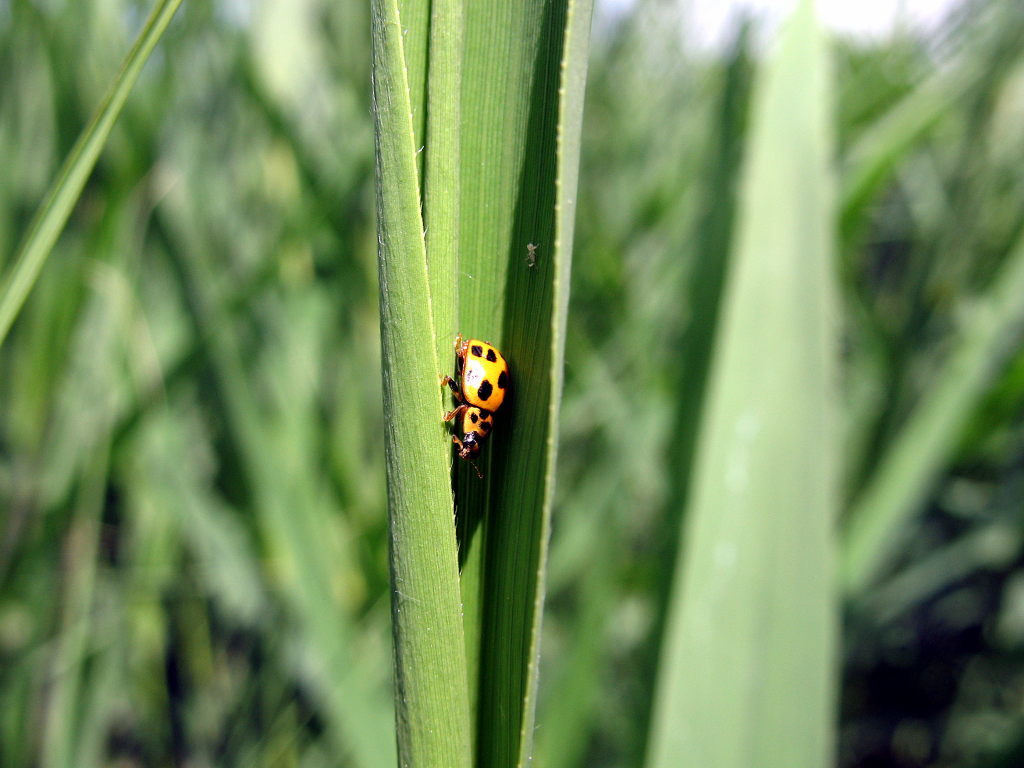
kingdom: Animalia
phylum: Arthropoda
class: Insecta
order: Coleoptera
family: Coccinellidae
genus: Propylaea
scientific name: Propylaea quatuordecimpunctata
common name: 14-spotted ladybird beetle
